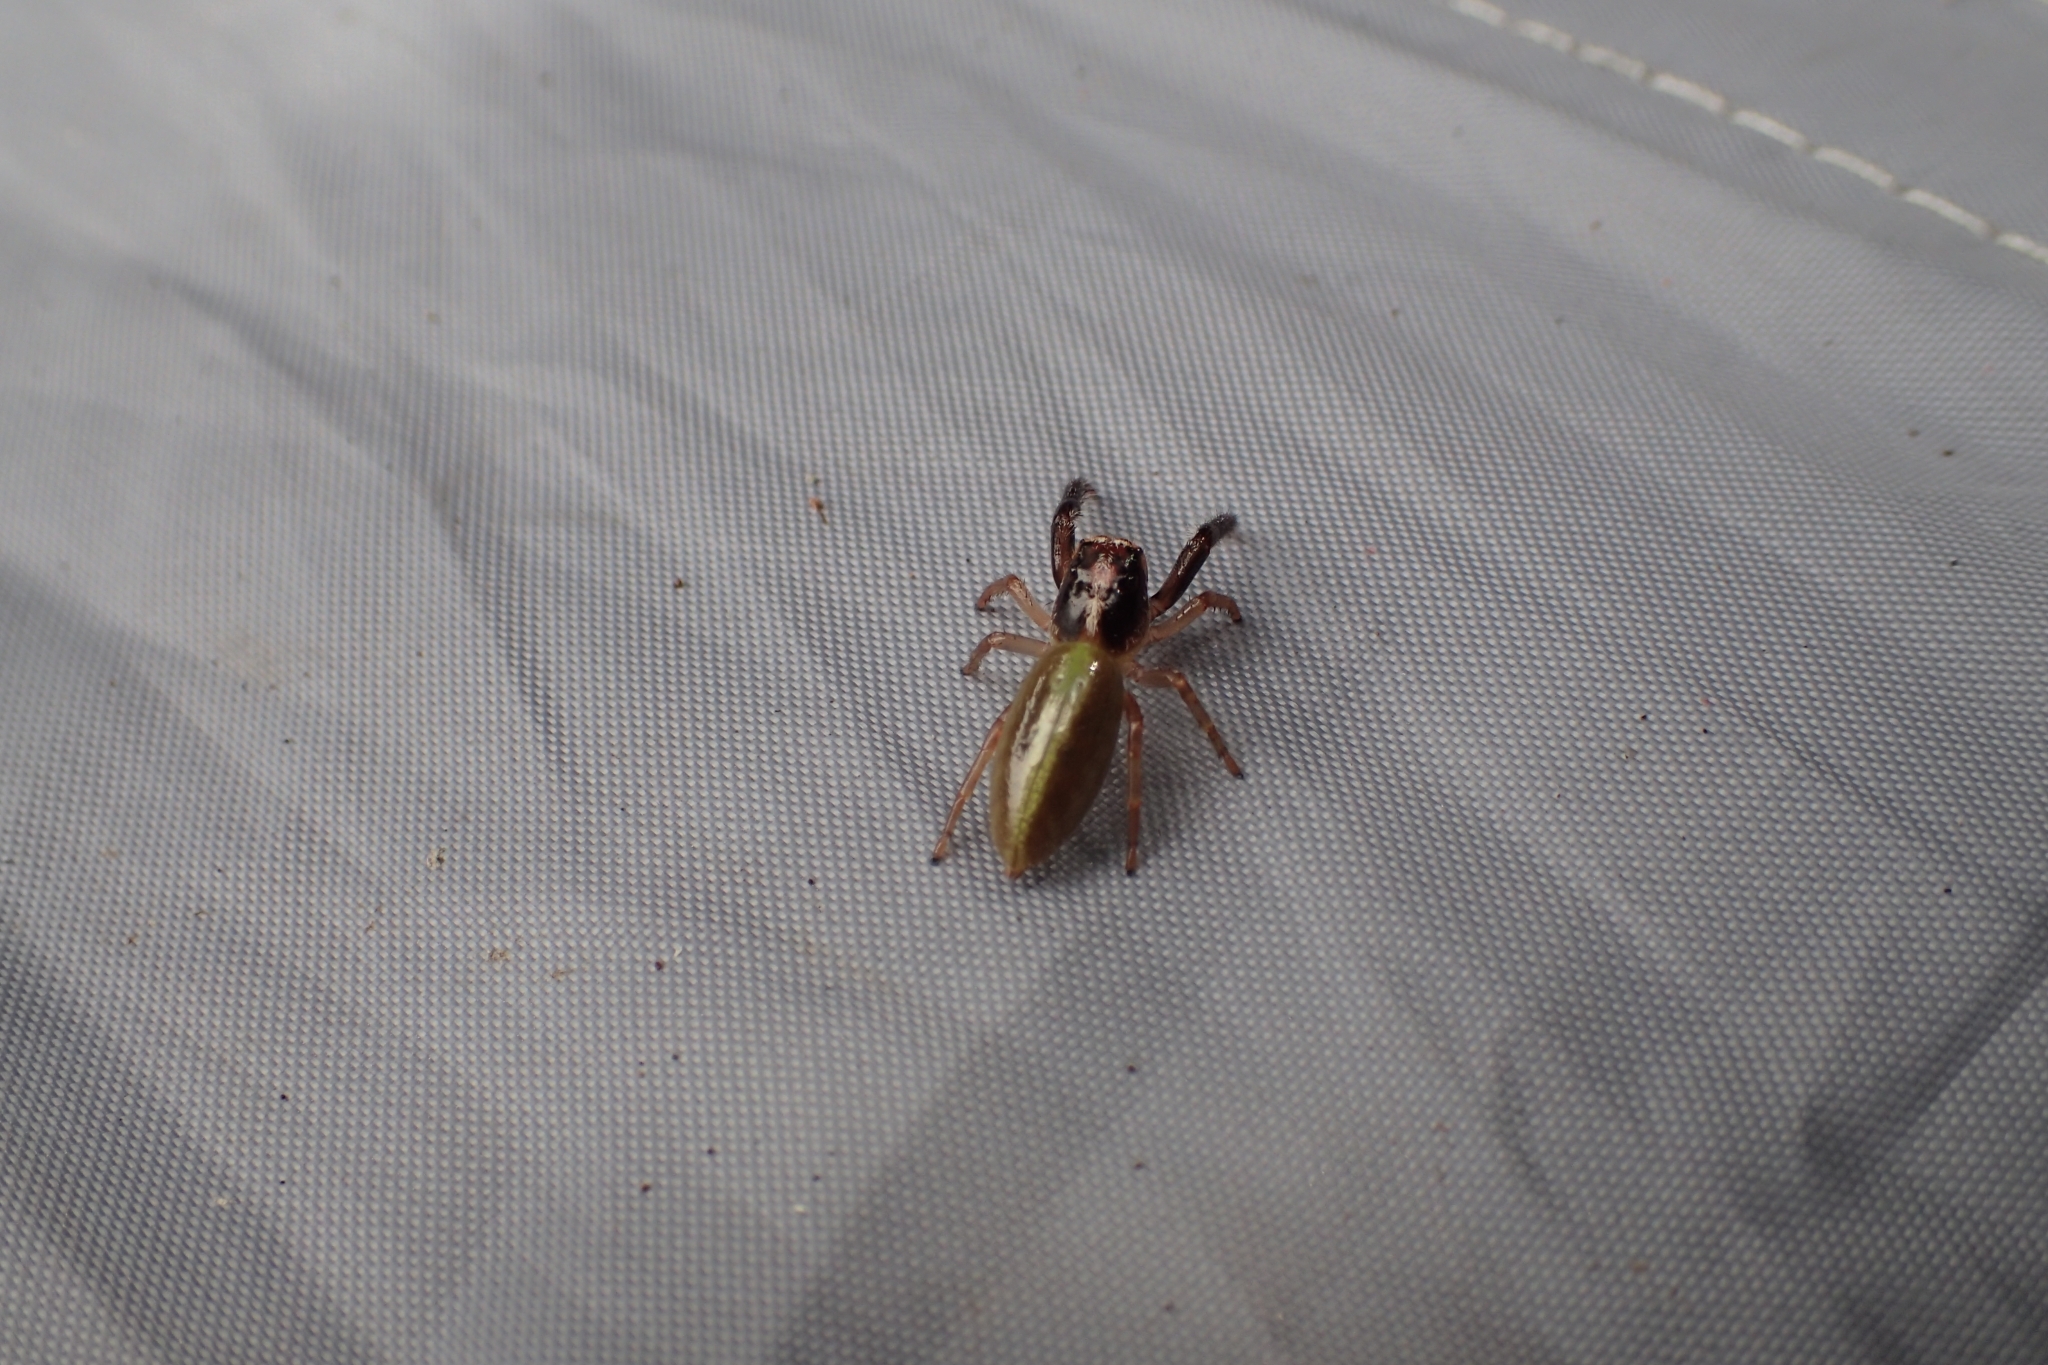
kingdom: Animalia
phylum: Arthropoda
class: Arachnida
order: Araneae
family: Salticidae
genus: Trite
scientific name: Trite planiceps
